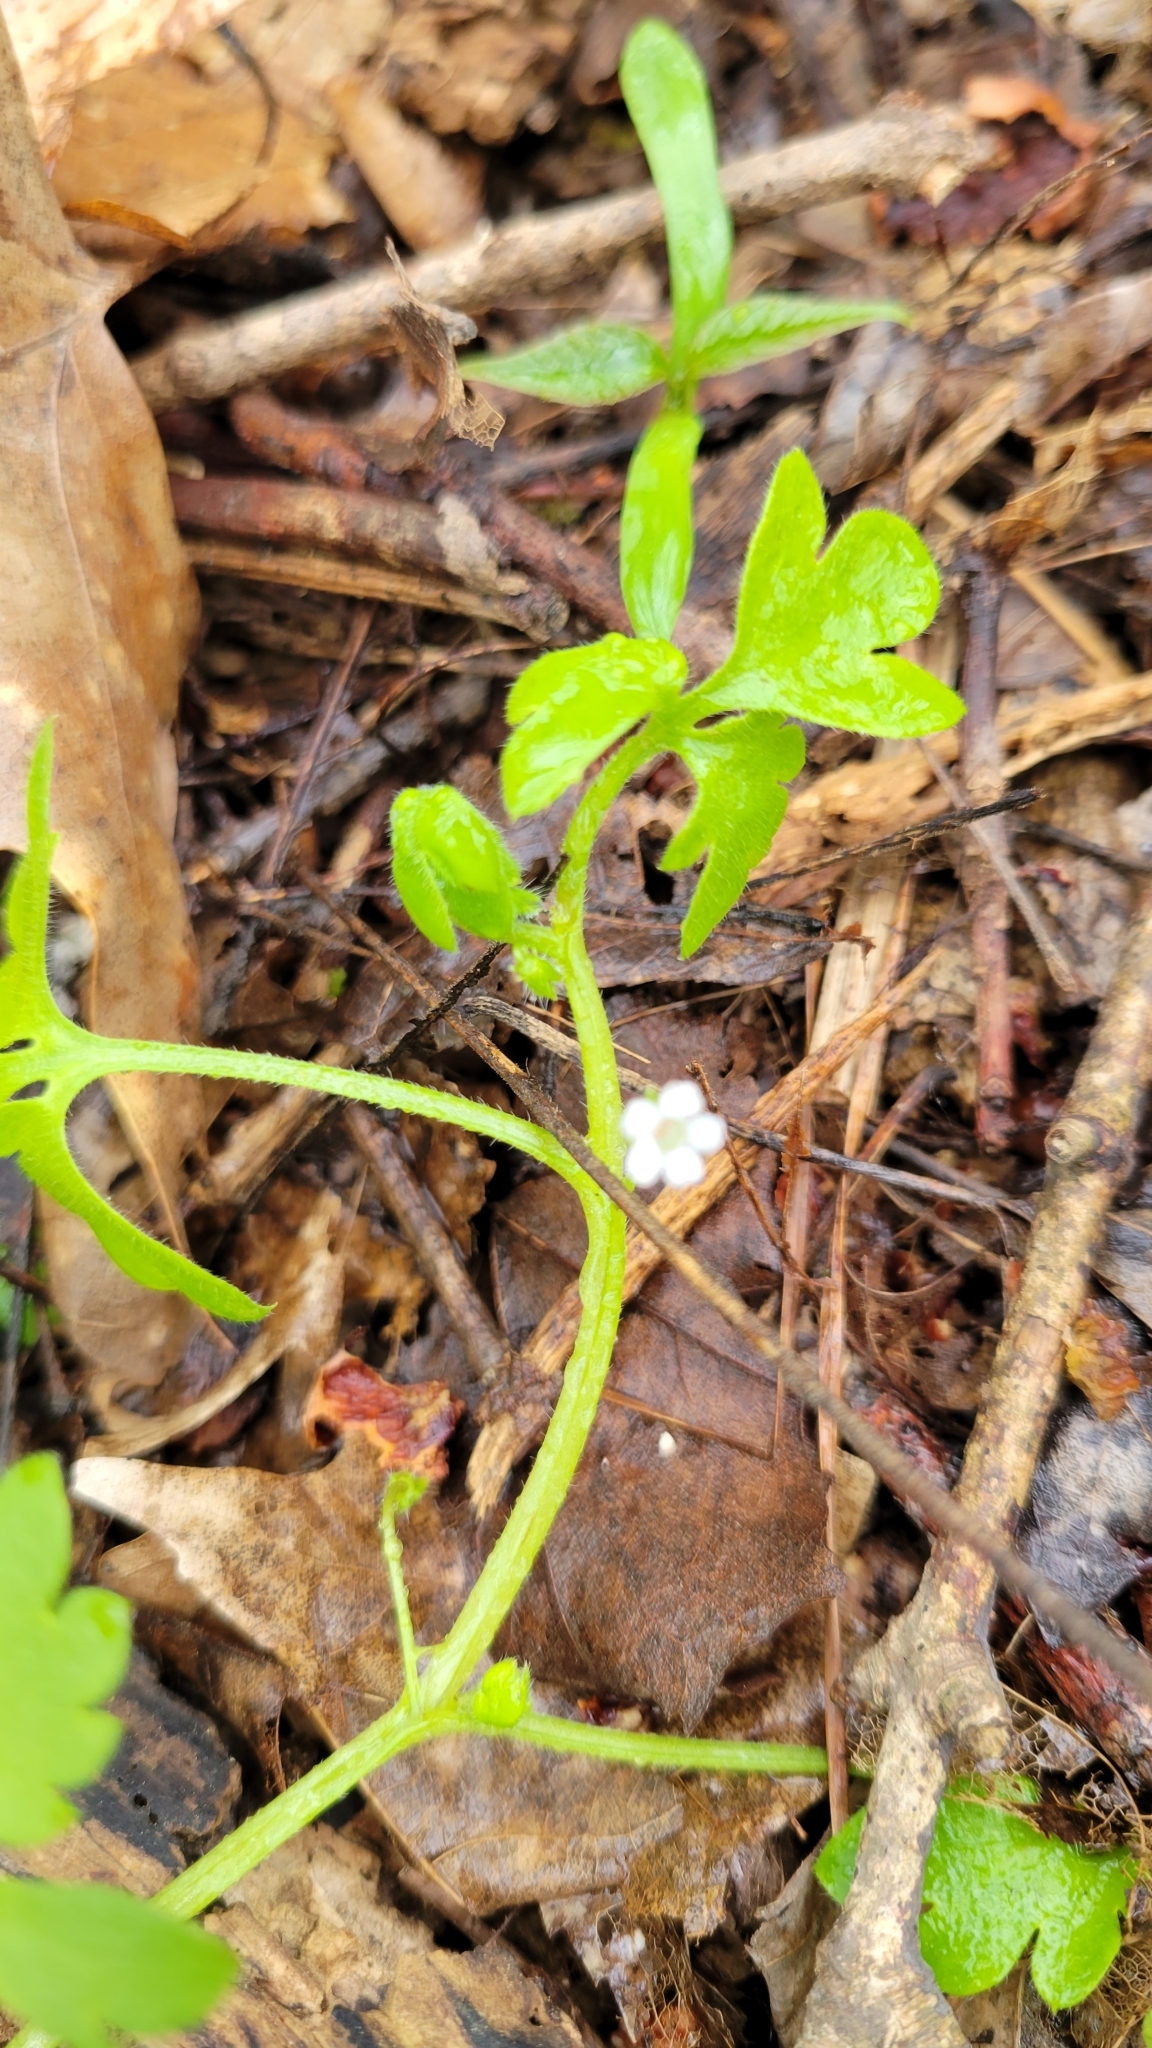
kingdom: Plantae
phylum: Tracheophyta
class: Magnoliopsida
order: Boraginales
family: Hydrophyllaceae
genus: Nemophila
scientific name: Nemophila aphylla
